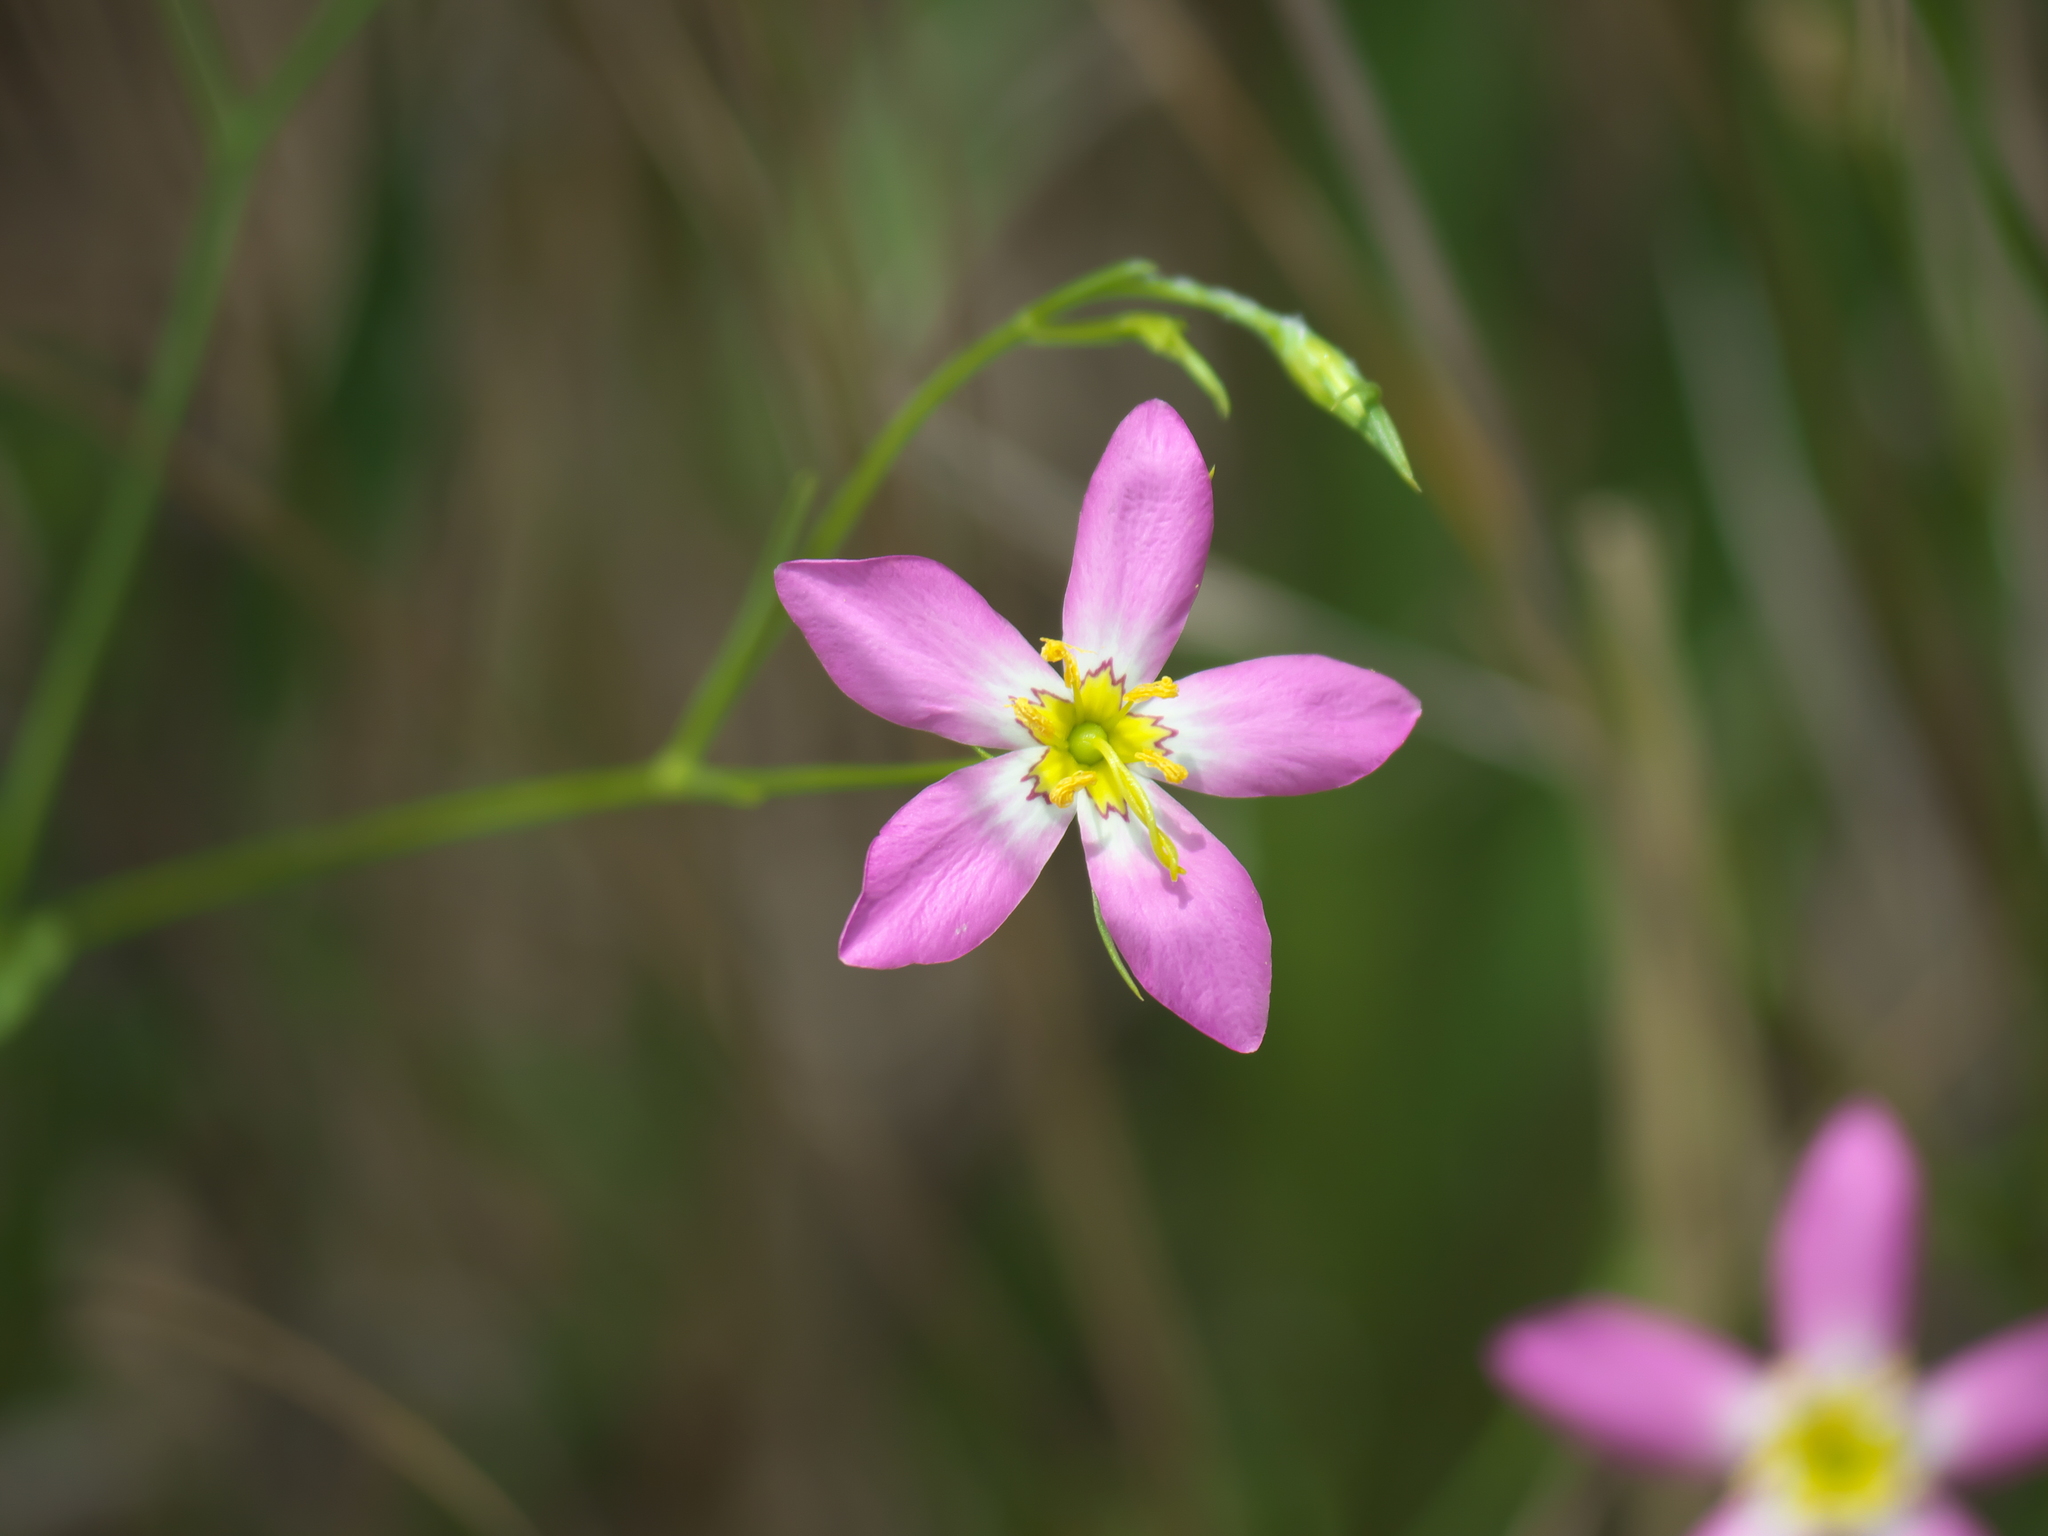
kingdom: Plantae
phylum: Tracheophyta
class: Magnoliopsida
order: Gentianales
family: Gentianaceae
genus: Sabatia
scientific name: Sabatia stellaris
